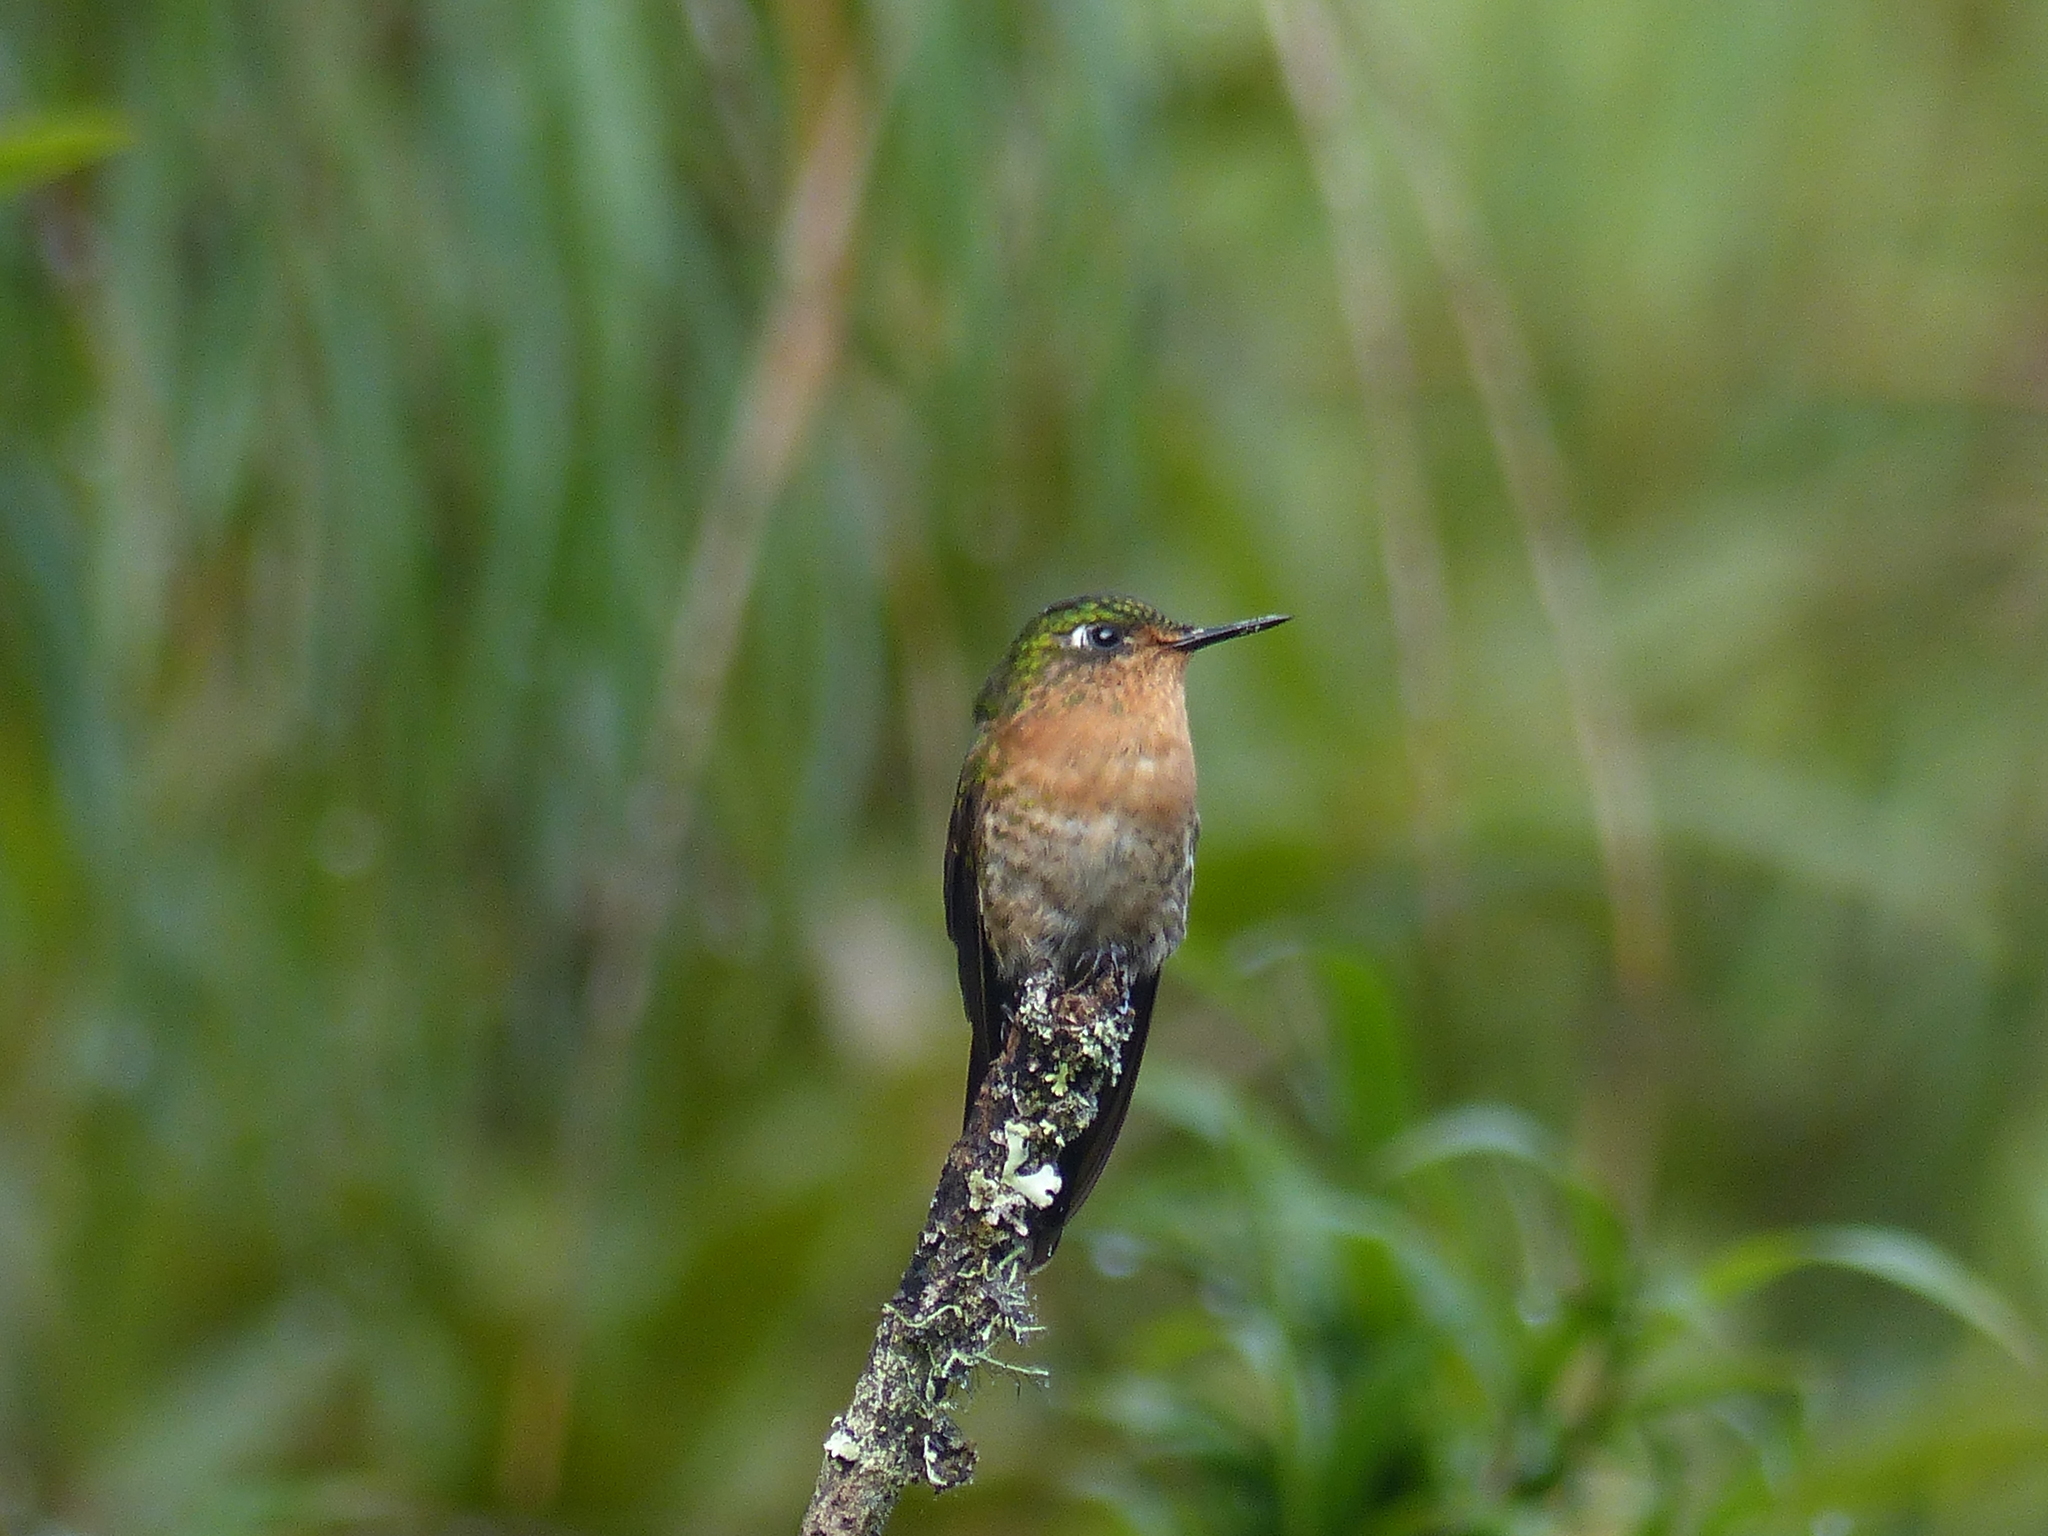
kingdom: Animalia
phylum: Chordata
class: Aves
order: Apodiformes
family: Trochilidae
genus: Metallura
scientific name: Metallura tyrianthina
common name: Tyrian metaltail
